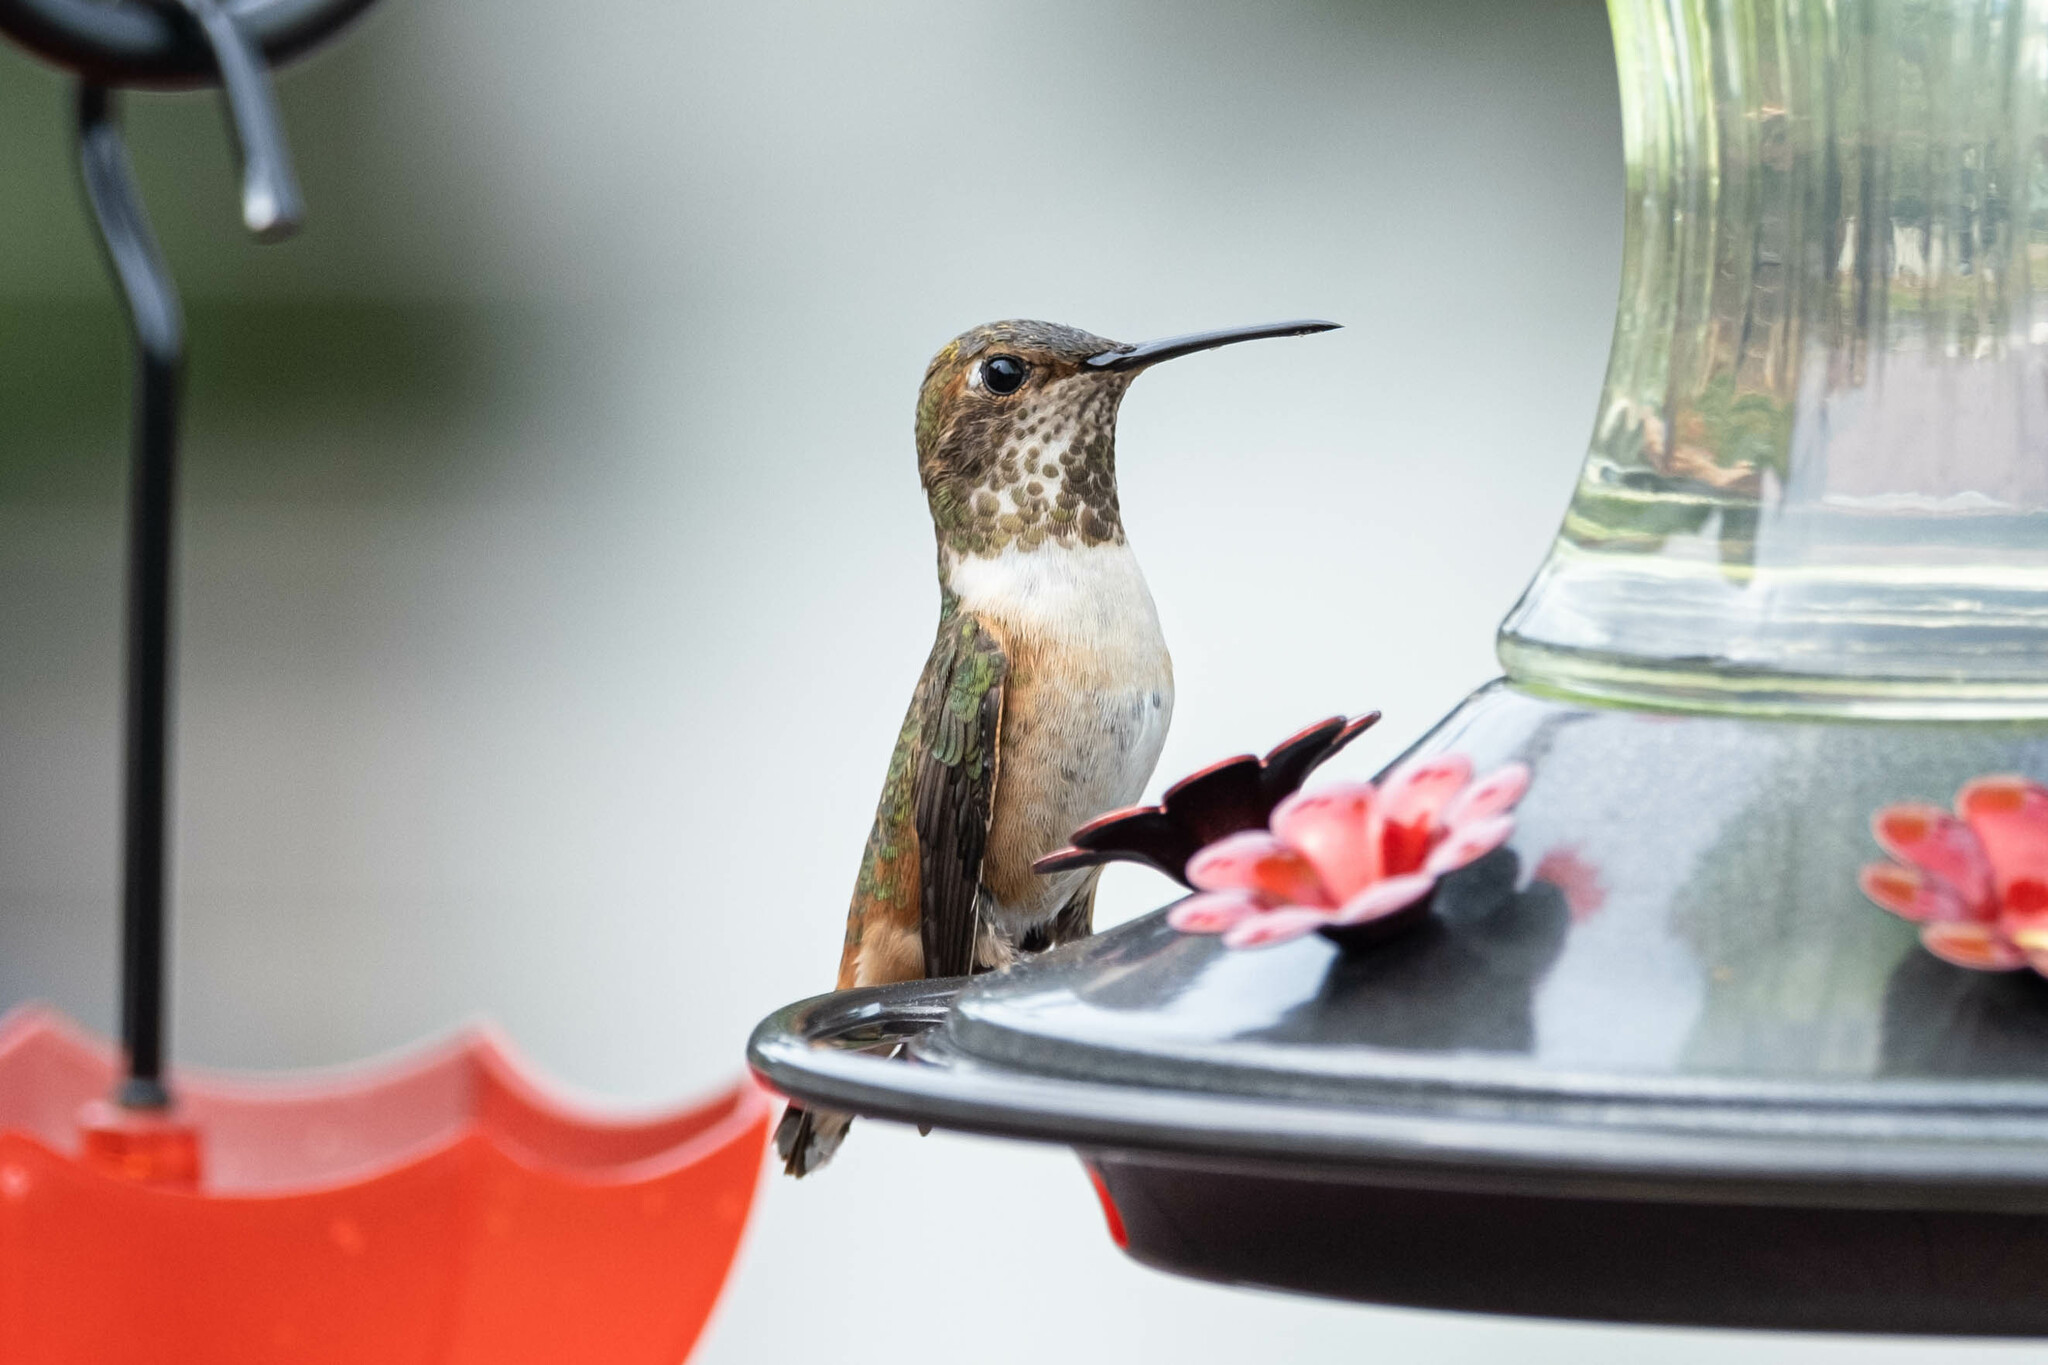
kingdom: Animalia
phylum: Chordata
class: Aves
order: Apodiformes
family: Trochilidae
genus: Selasphorus
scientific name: Selasphorus
